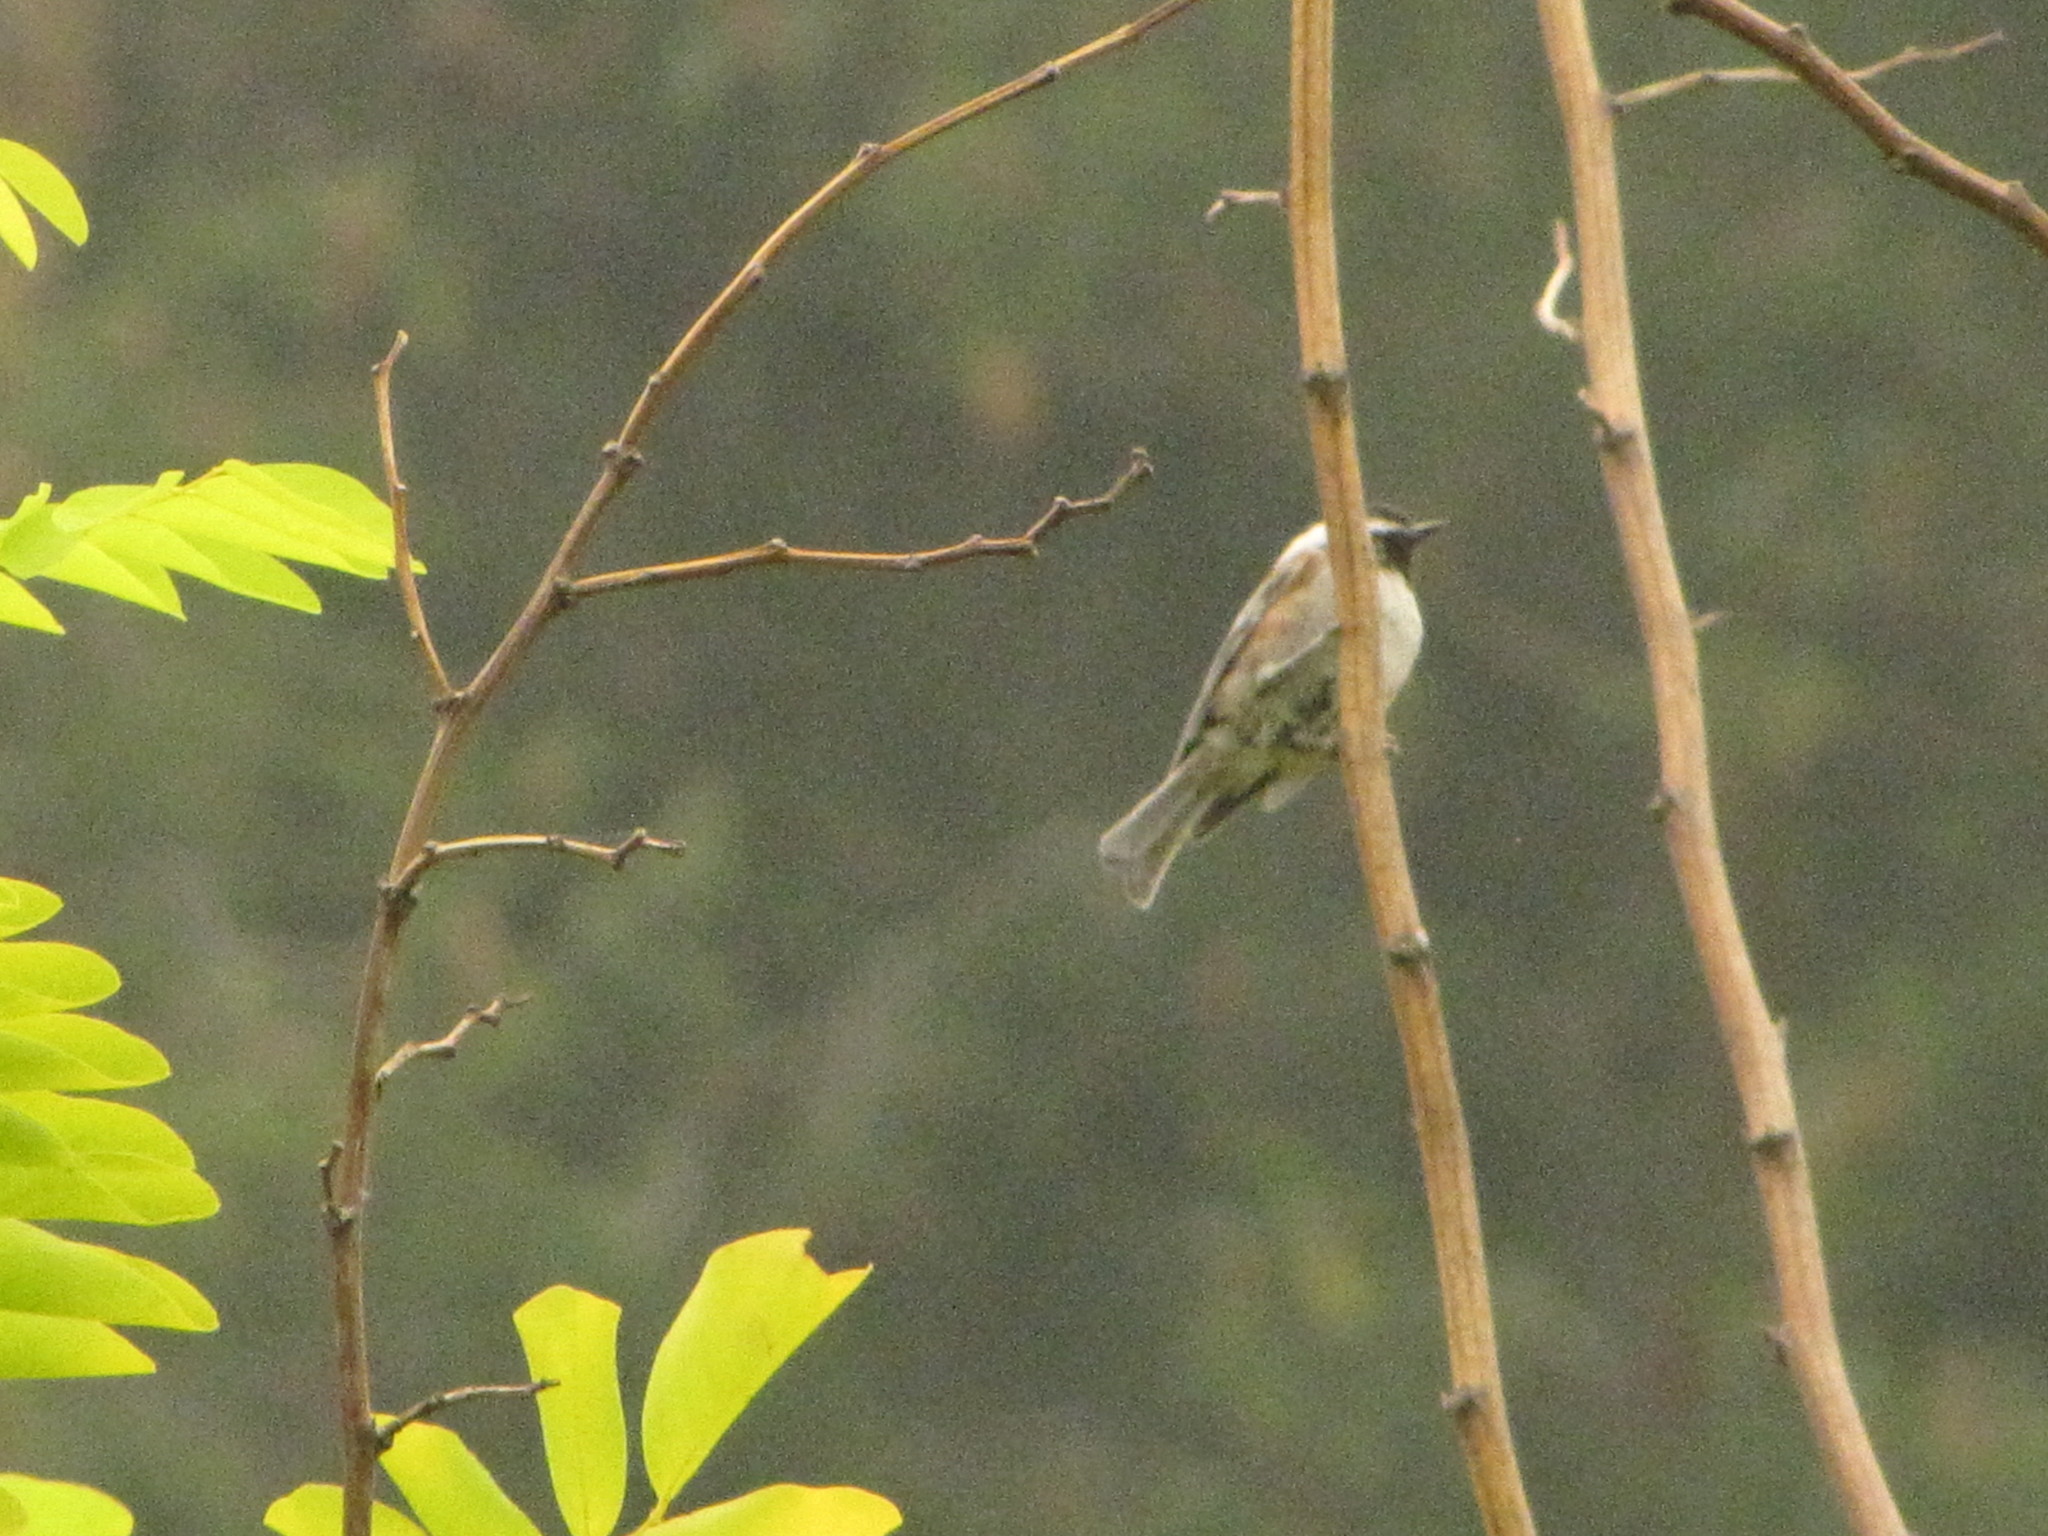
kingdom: Animalia
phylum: Chordata
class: Aves
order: Passeriformes
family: Paridae
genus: Poecile
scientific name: Poecile rufescens
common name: Chestnut-backed chickadee
